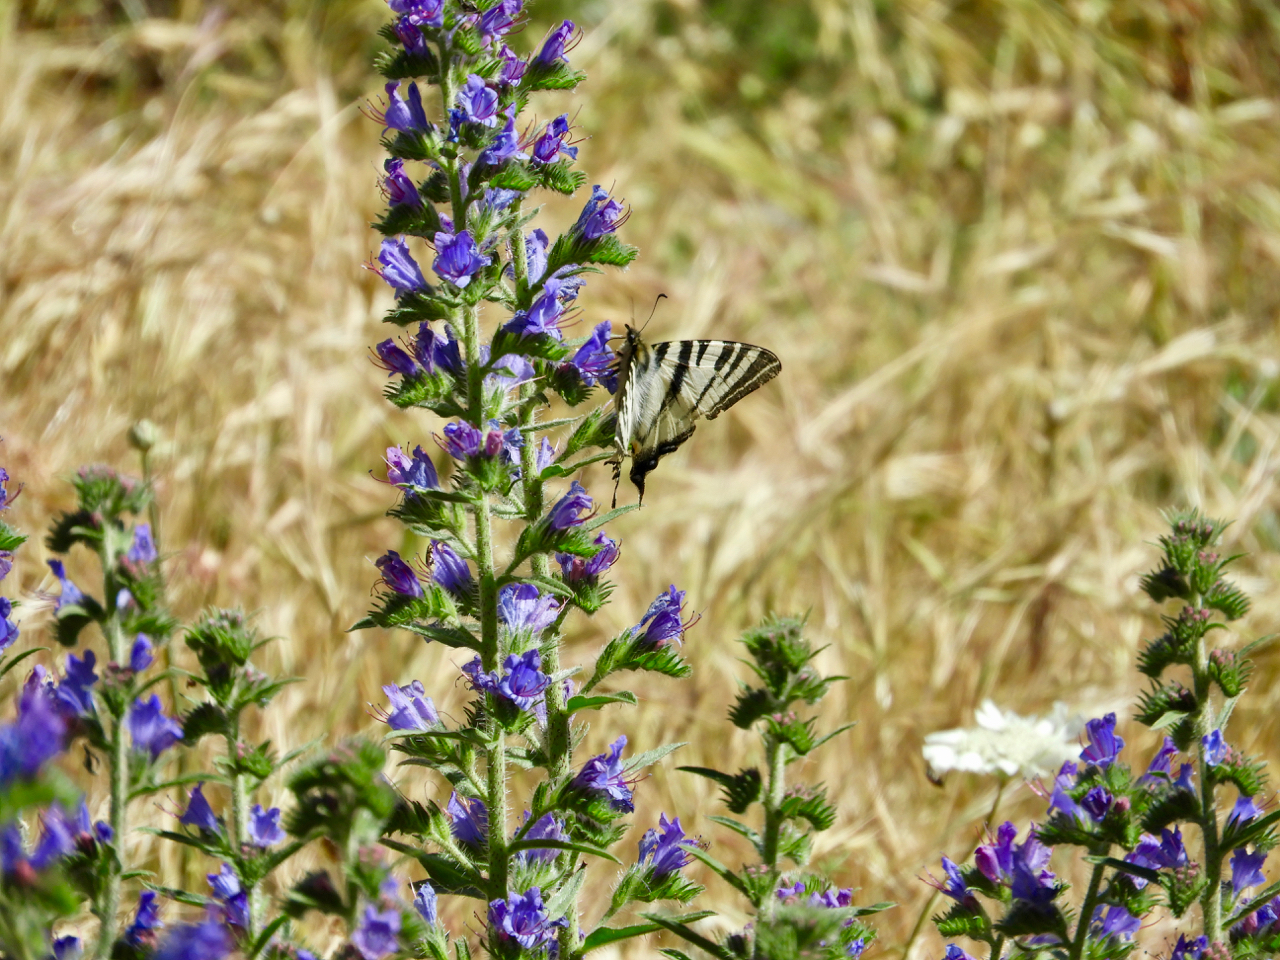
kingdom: Animalia
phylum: Arthropoda
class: Insecta
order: Lepidoptera
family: Papilionidae
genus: Iphiclides
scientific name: Iphiclides podalirius
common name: Scarce swallowtail
